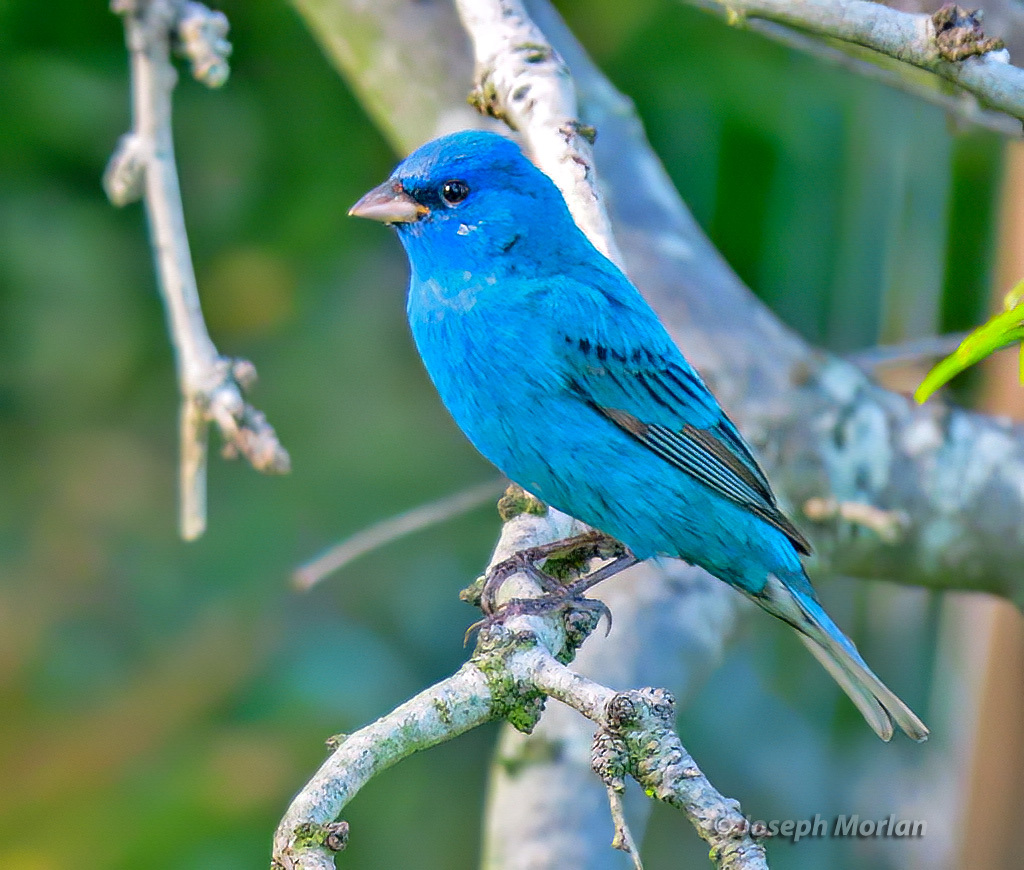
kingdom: Animalia
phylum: Chordata
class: Aves
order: Passeriformes
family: Cardinalidae
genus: Passerina
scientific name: Passerina cyanea
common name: Indigo bunting
